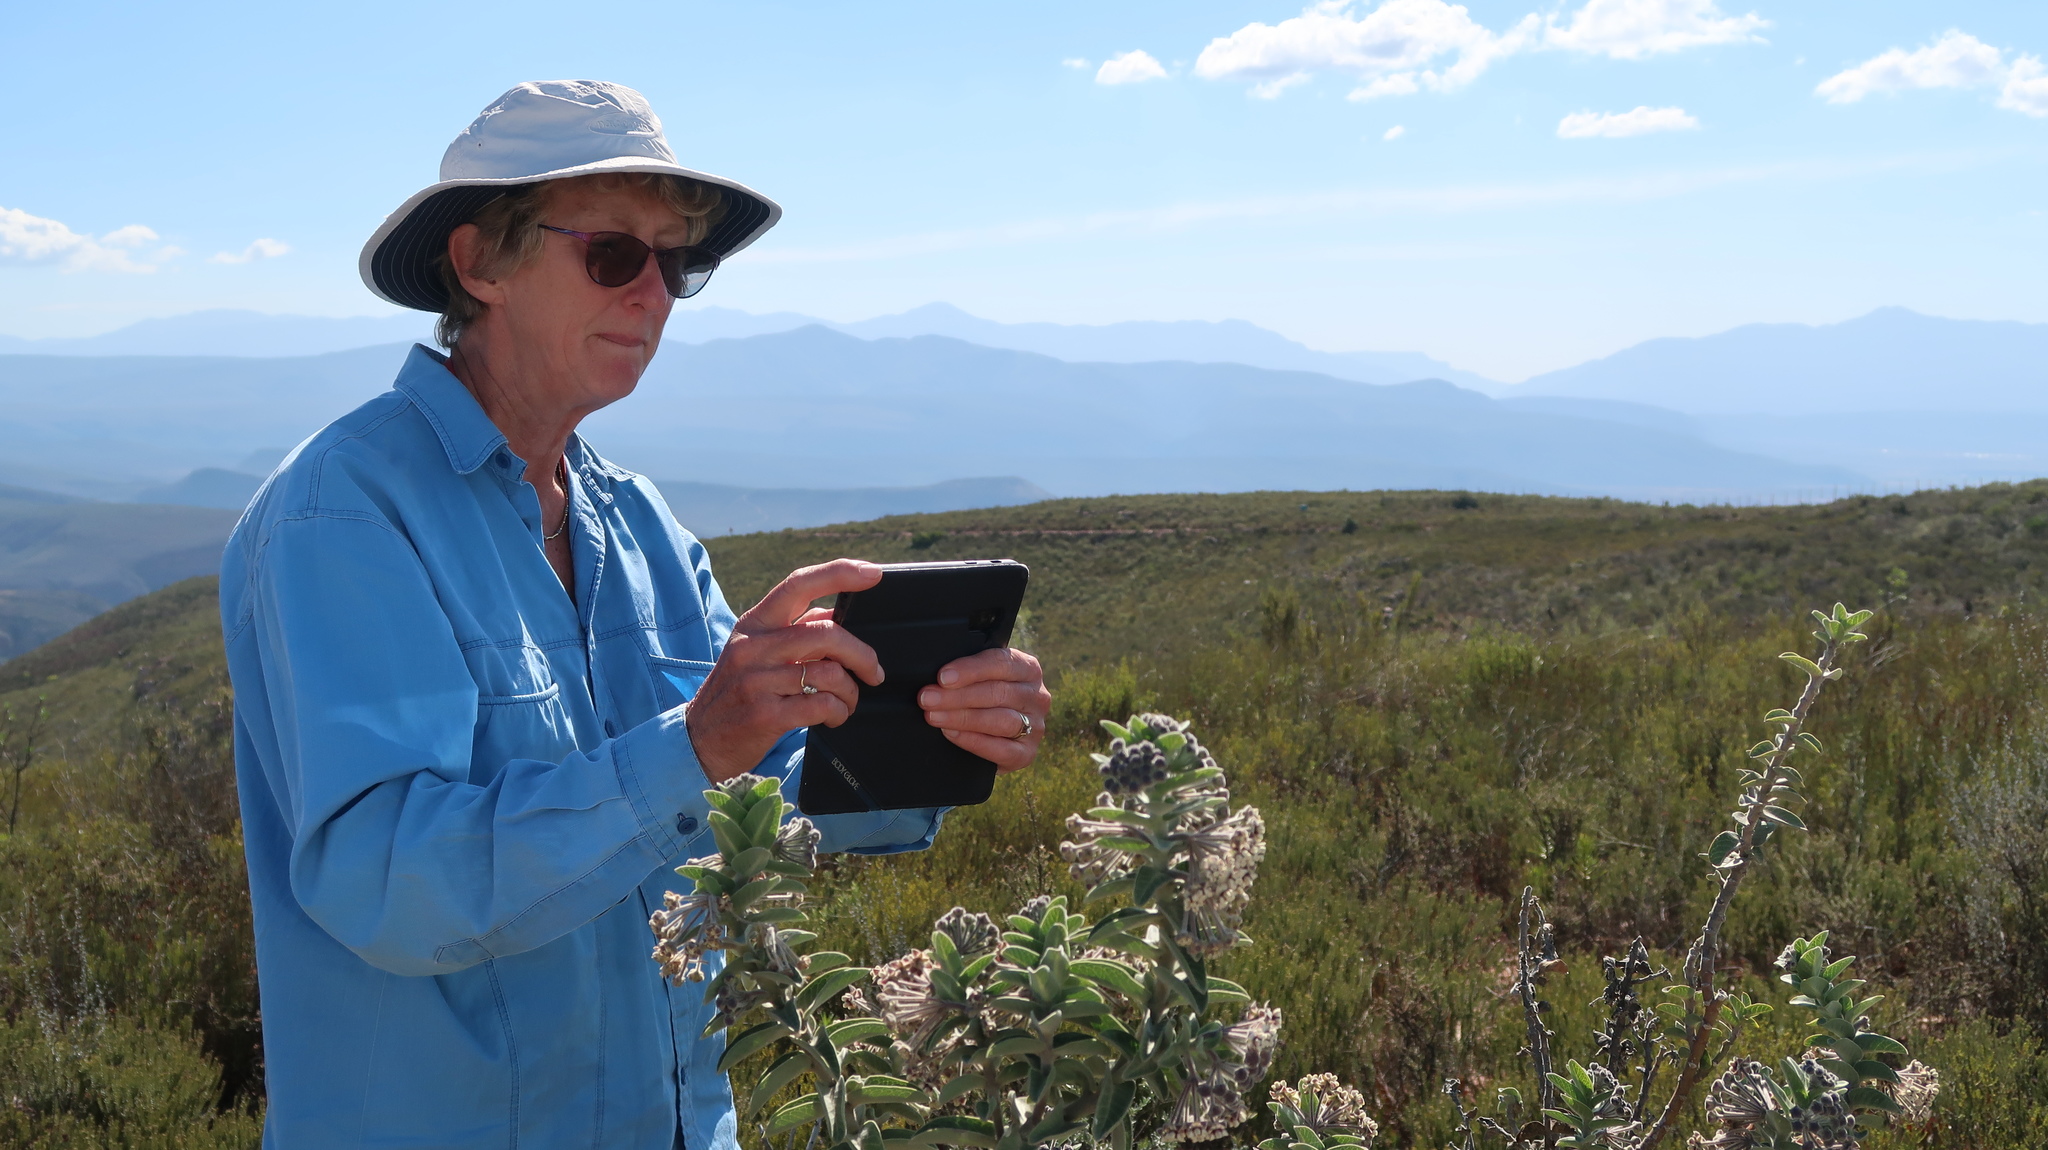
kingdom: Plantae
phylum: Tracheophyta
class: Magnoliopsida
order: Gentianales
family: Apocynaceae
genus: Gomphocarpus
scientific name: Gomphocarpus cancellatus
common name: Wild cotton
